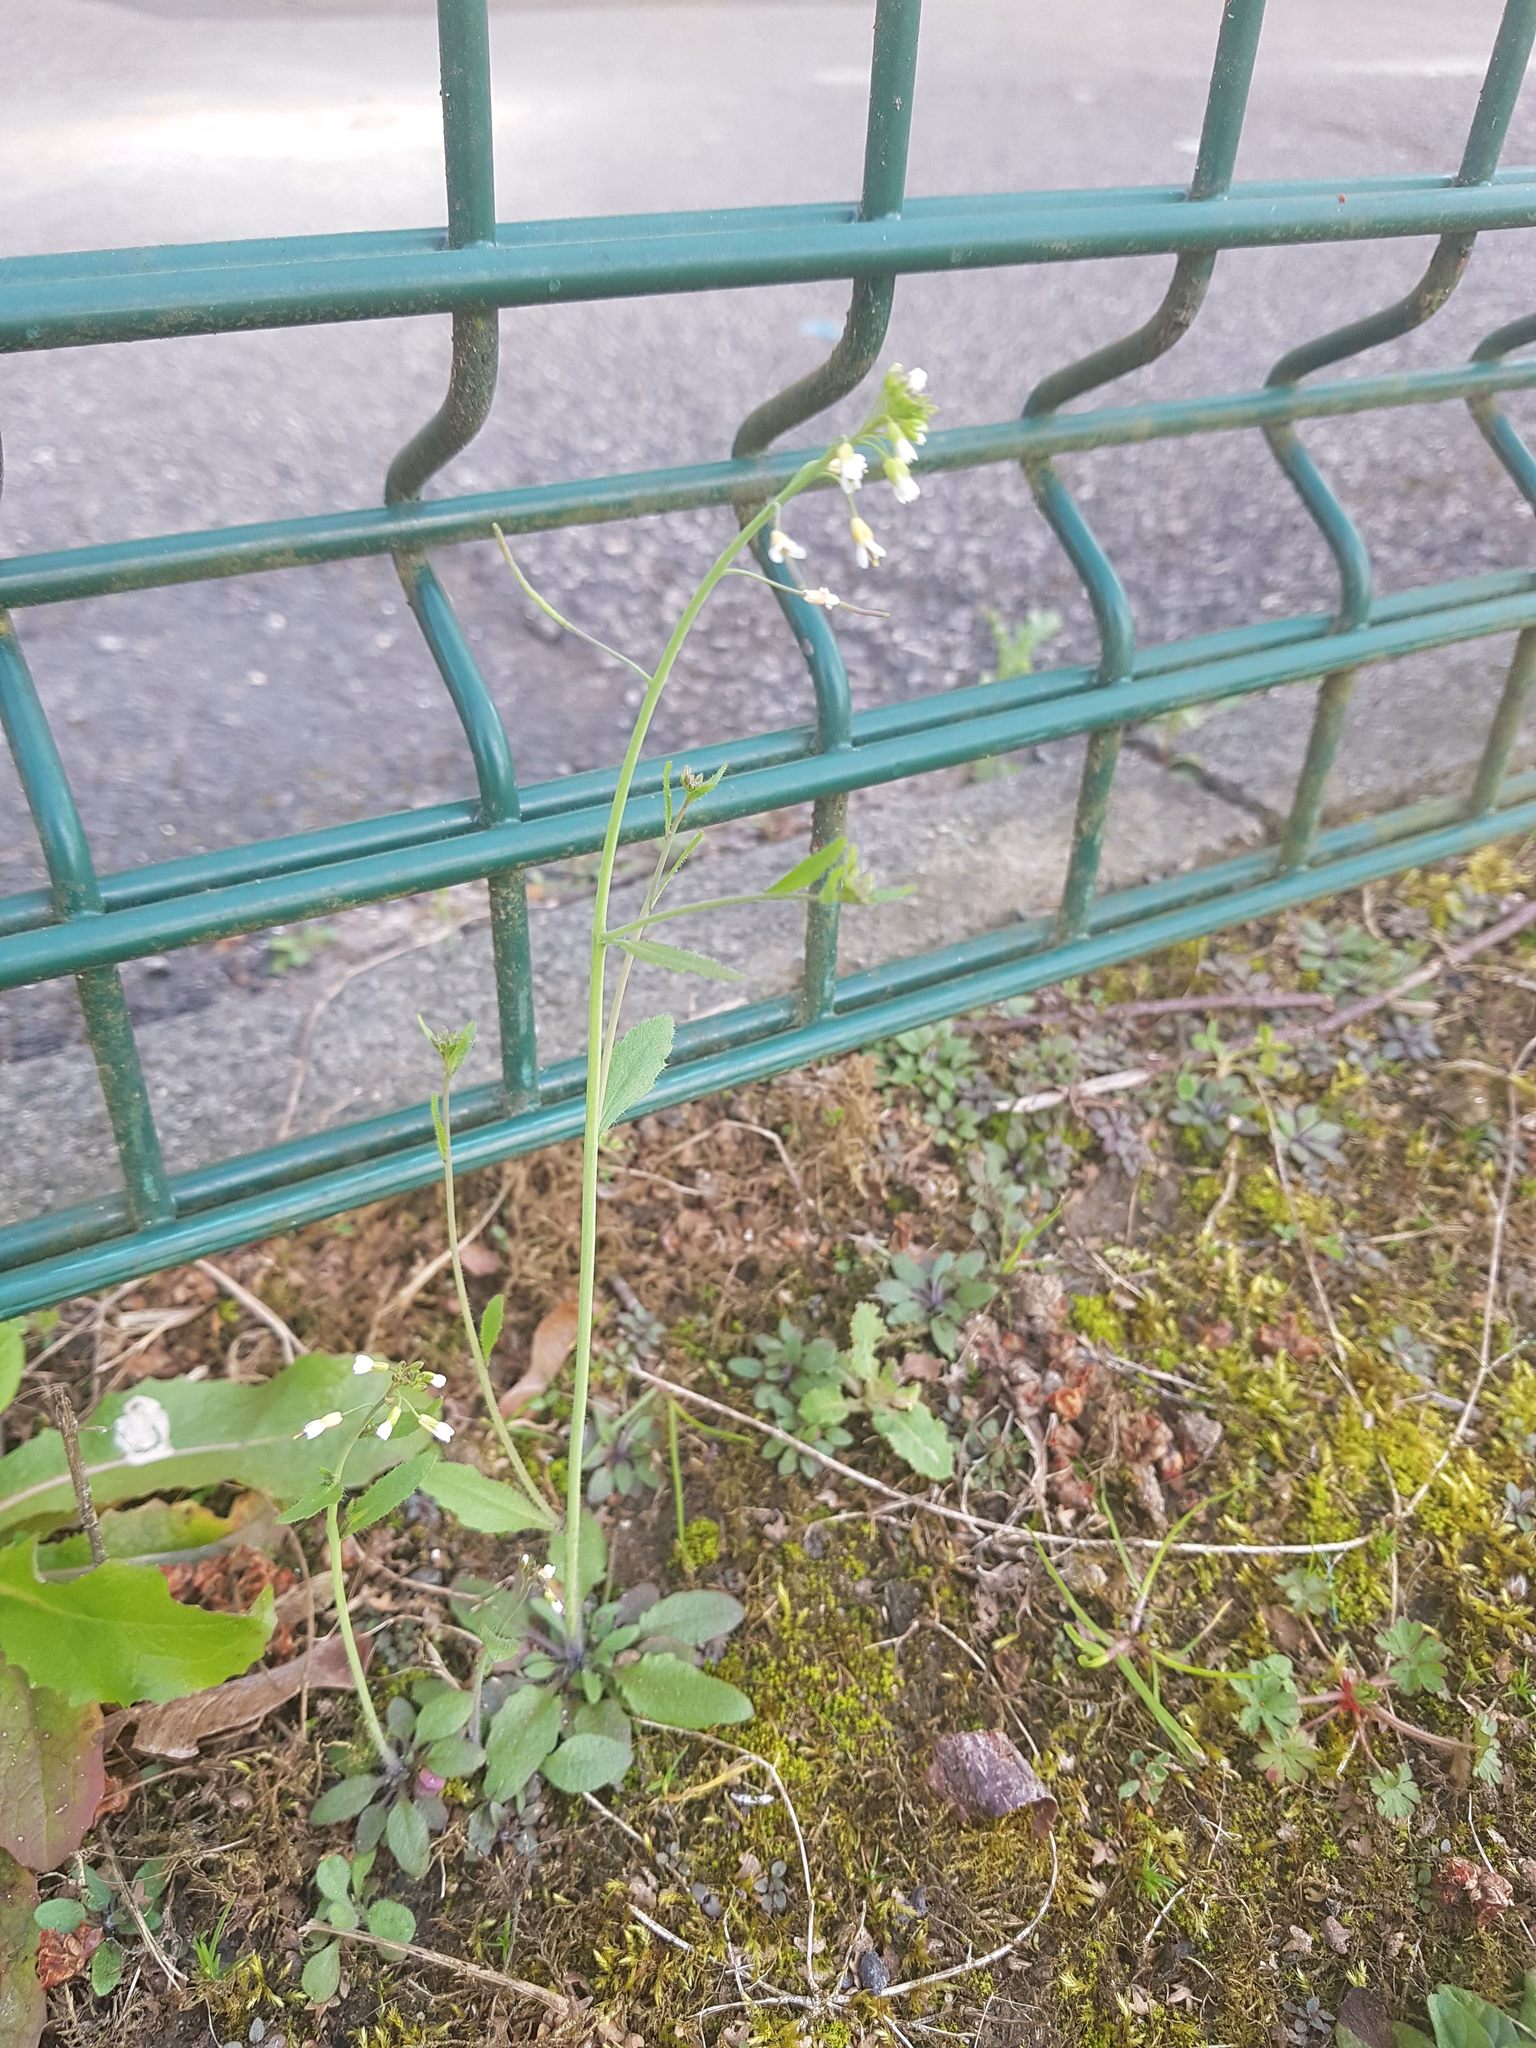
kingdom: Plantae
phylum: Tracheophyta
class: Magnoliopsida
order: Brassicales
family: Brassicaceae
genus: Arabidopsis
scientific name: Arabidopsis thaliana
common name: Thale cress
